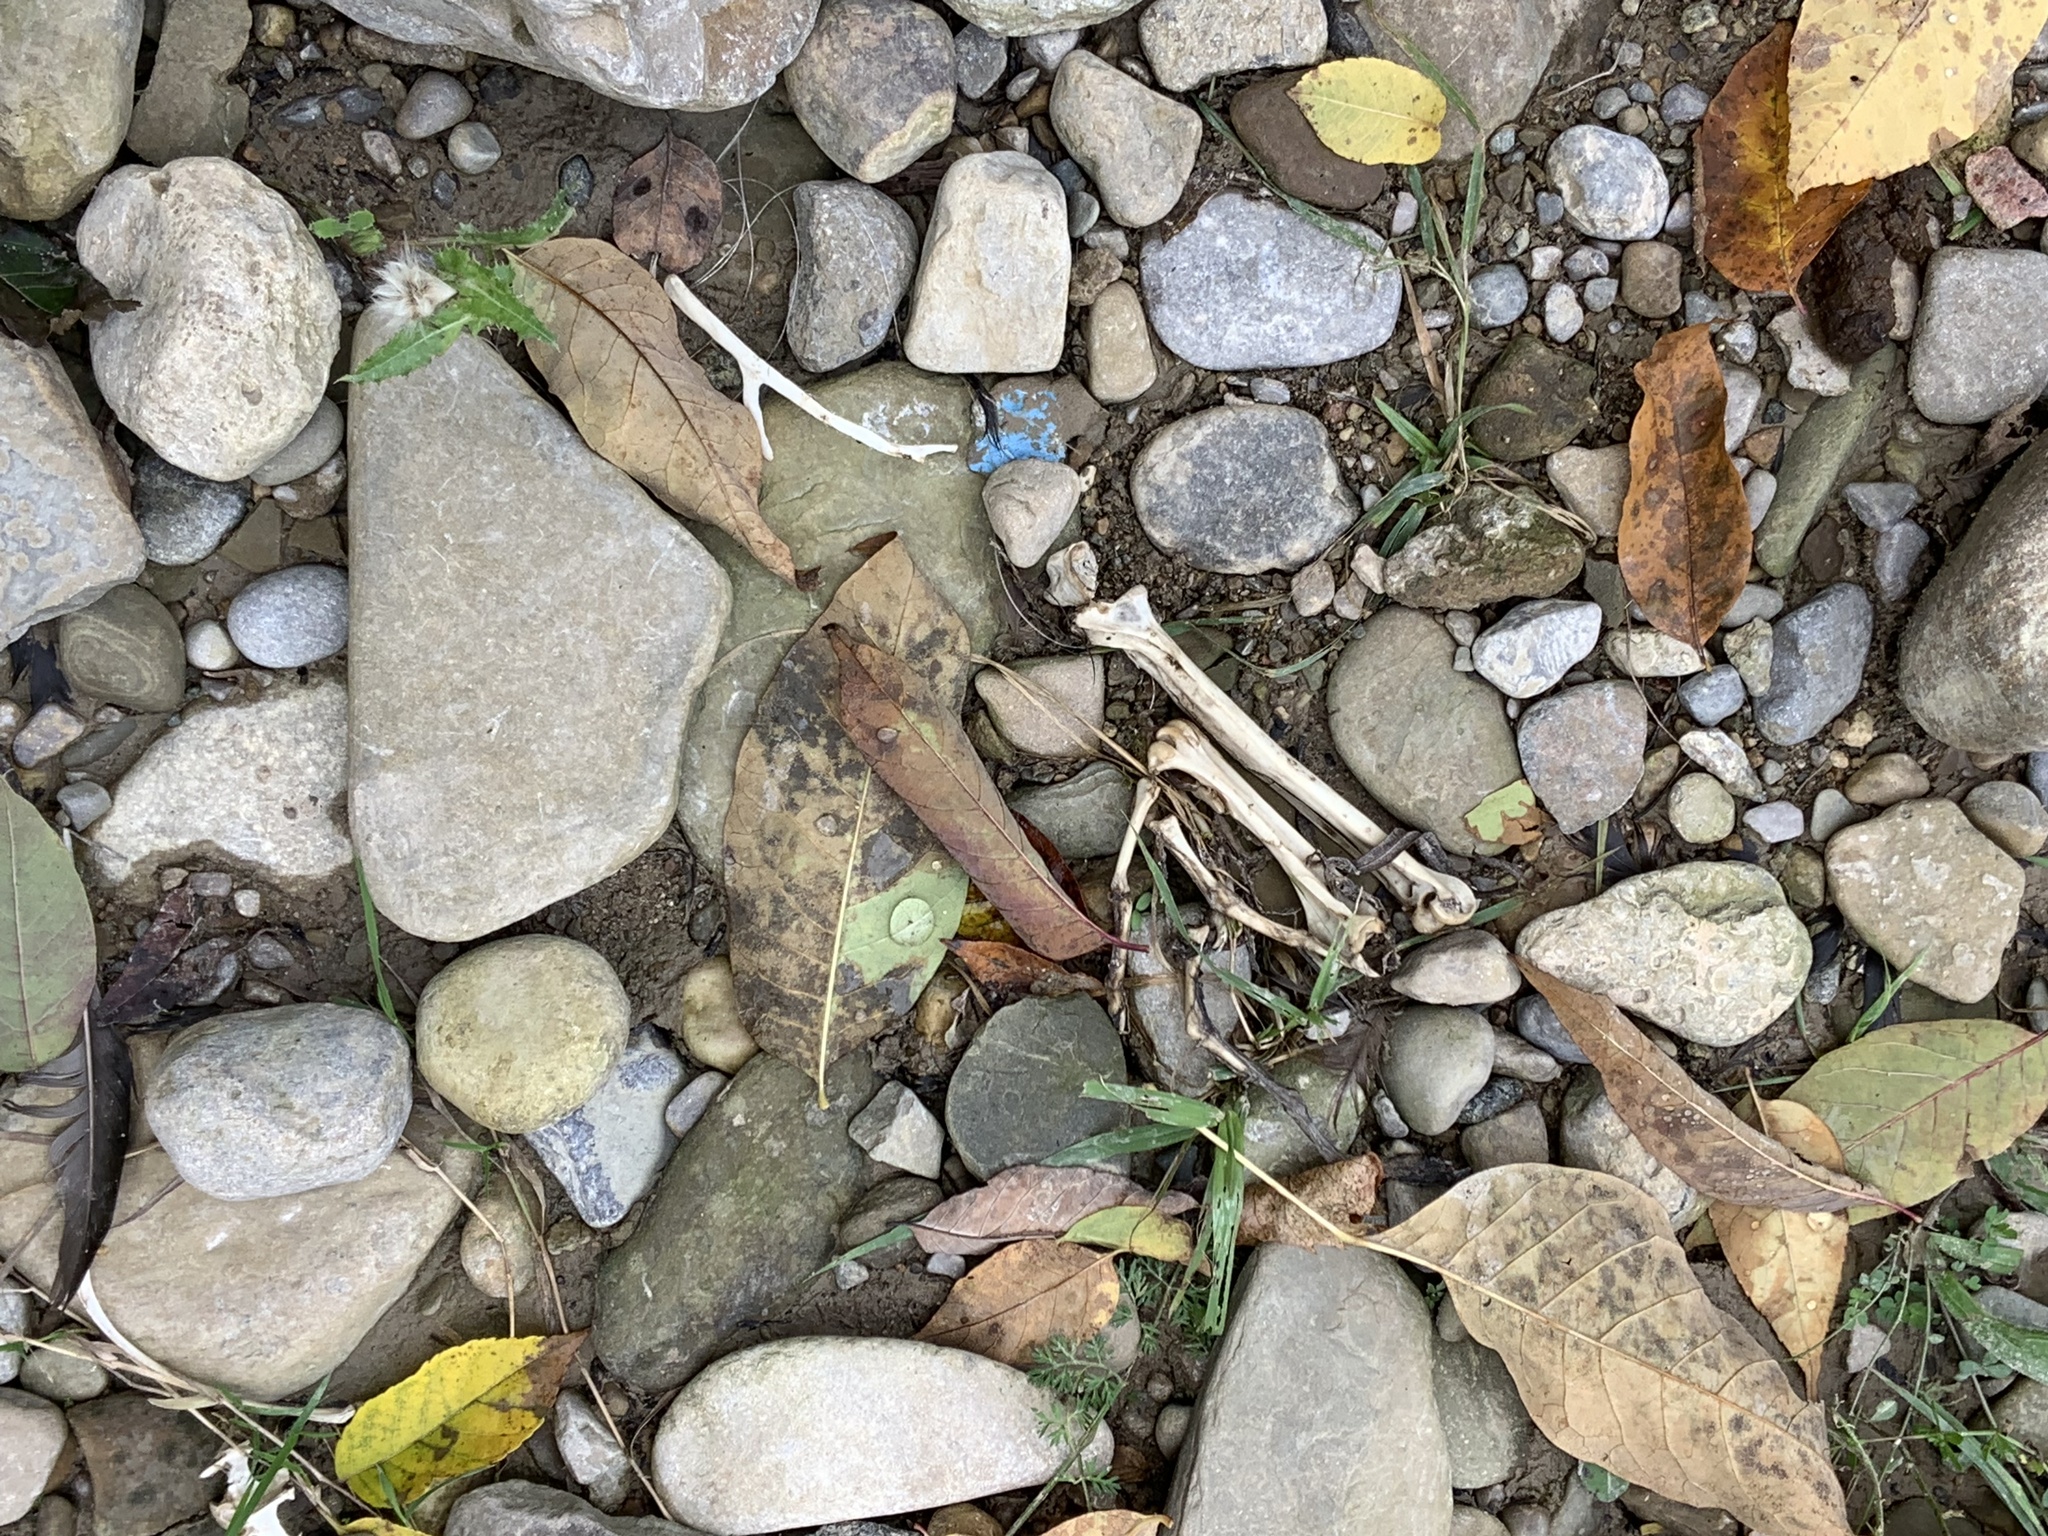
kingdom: Animalia
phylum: Chordata
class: Aves
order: Suliformes
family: Phalacrocoracidae
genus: Phalacrocorax
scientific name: Phalacrocorax auritus
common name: Double-crested cormorant
